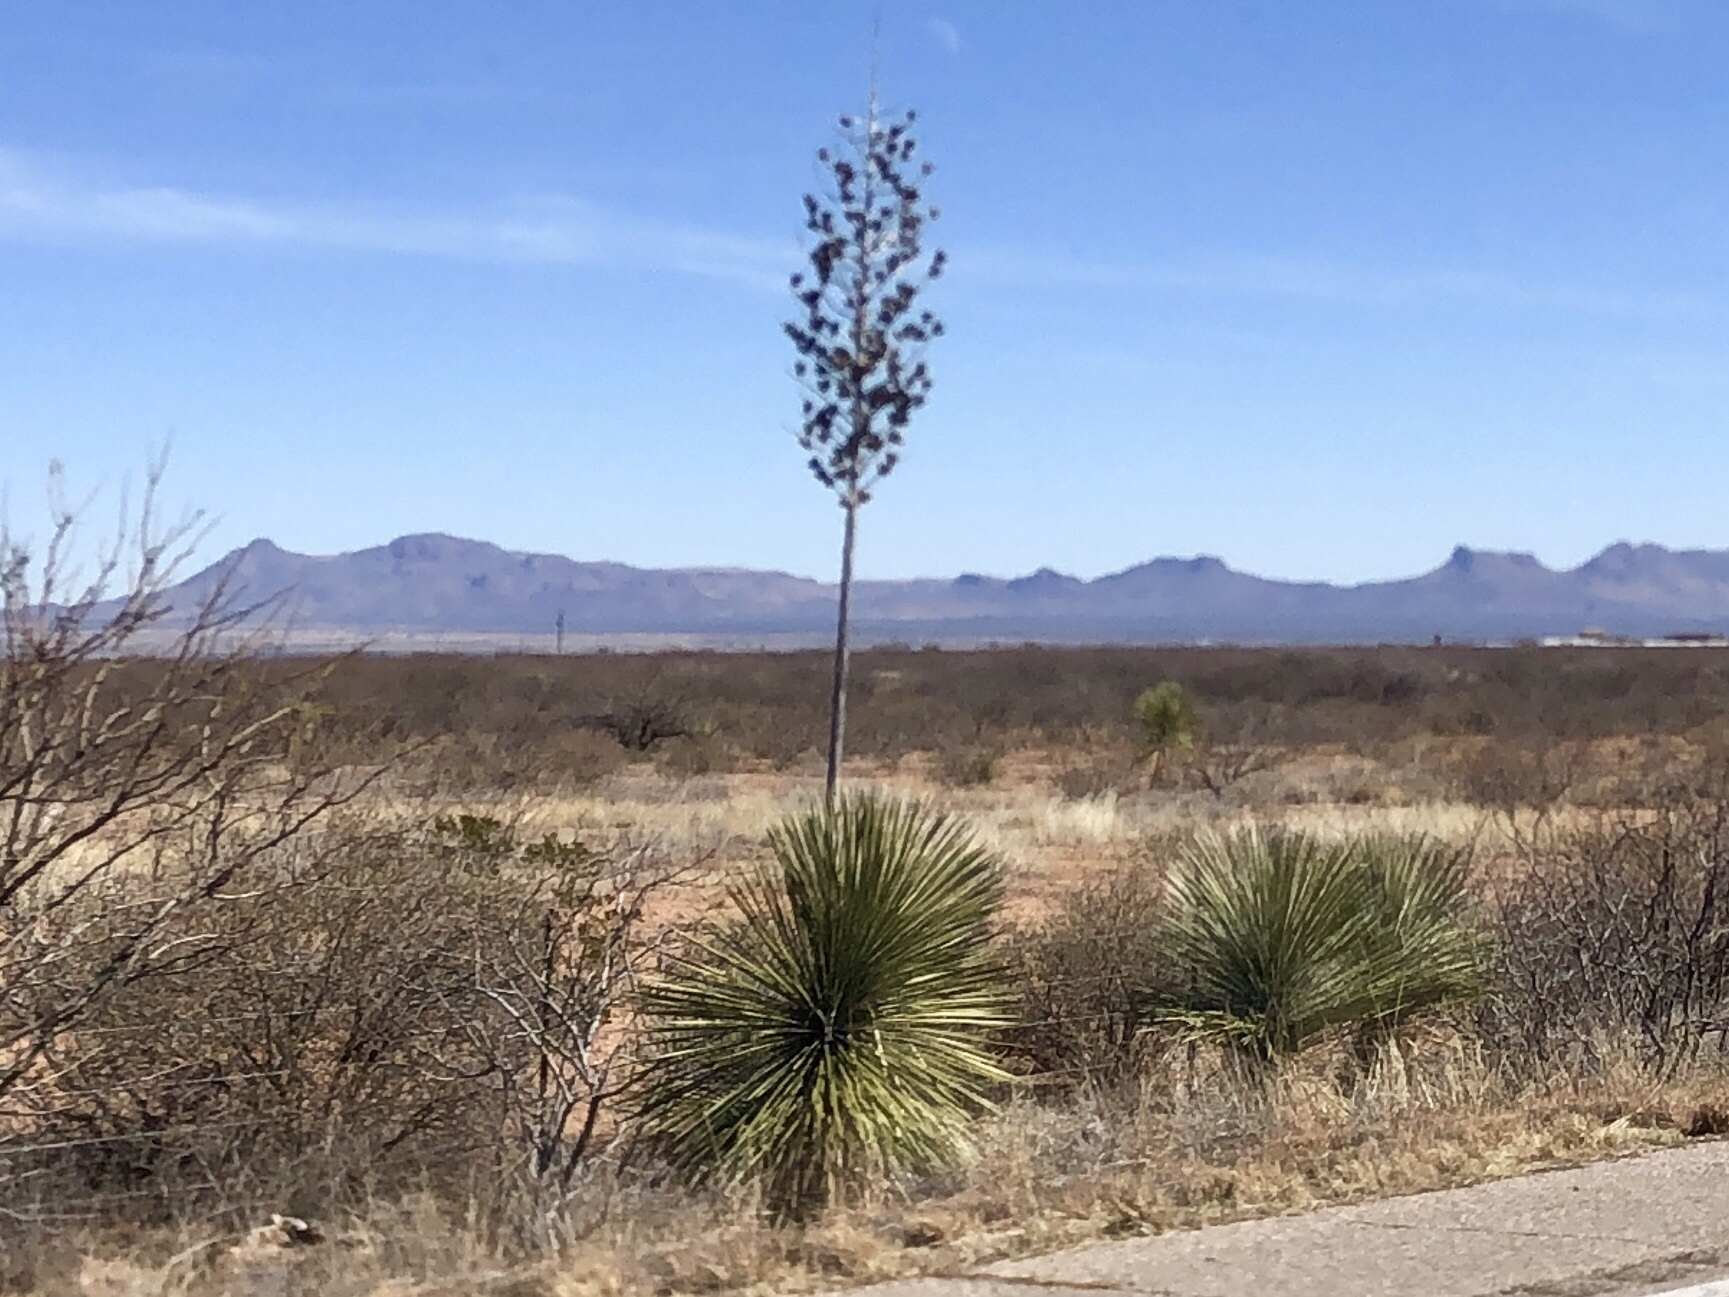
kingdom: Plantae
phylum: Tracheophyta
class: Liliopsida
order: Asparagales
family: Asparagaceae
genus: Yucca
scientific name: Yucca elata
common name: Palmella
